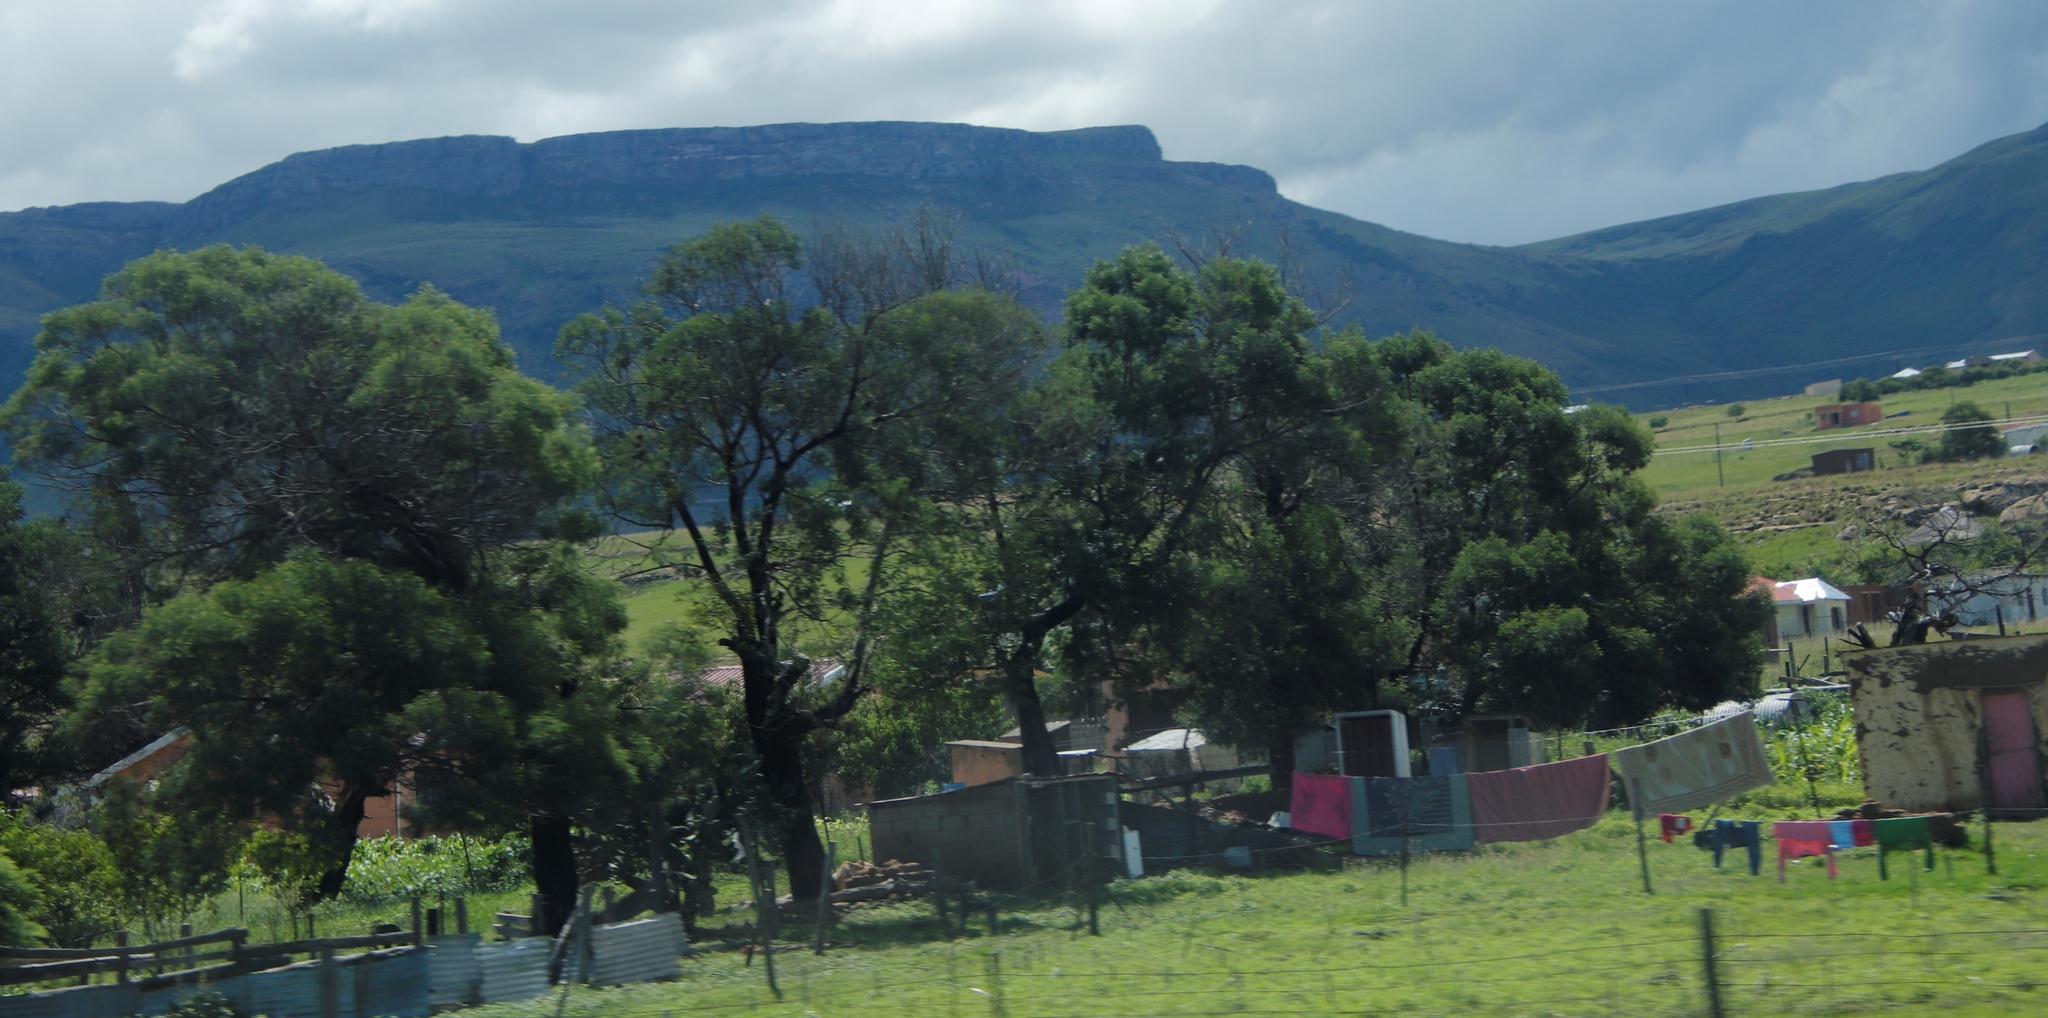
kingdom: Plantae
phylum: Tracheophyta
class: Magnoliopsida
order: Fabales
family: Fabaceae
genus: Acacia
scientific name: Acacia mearnsii
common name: Black wattle
